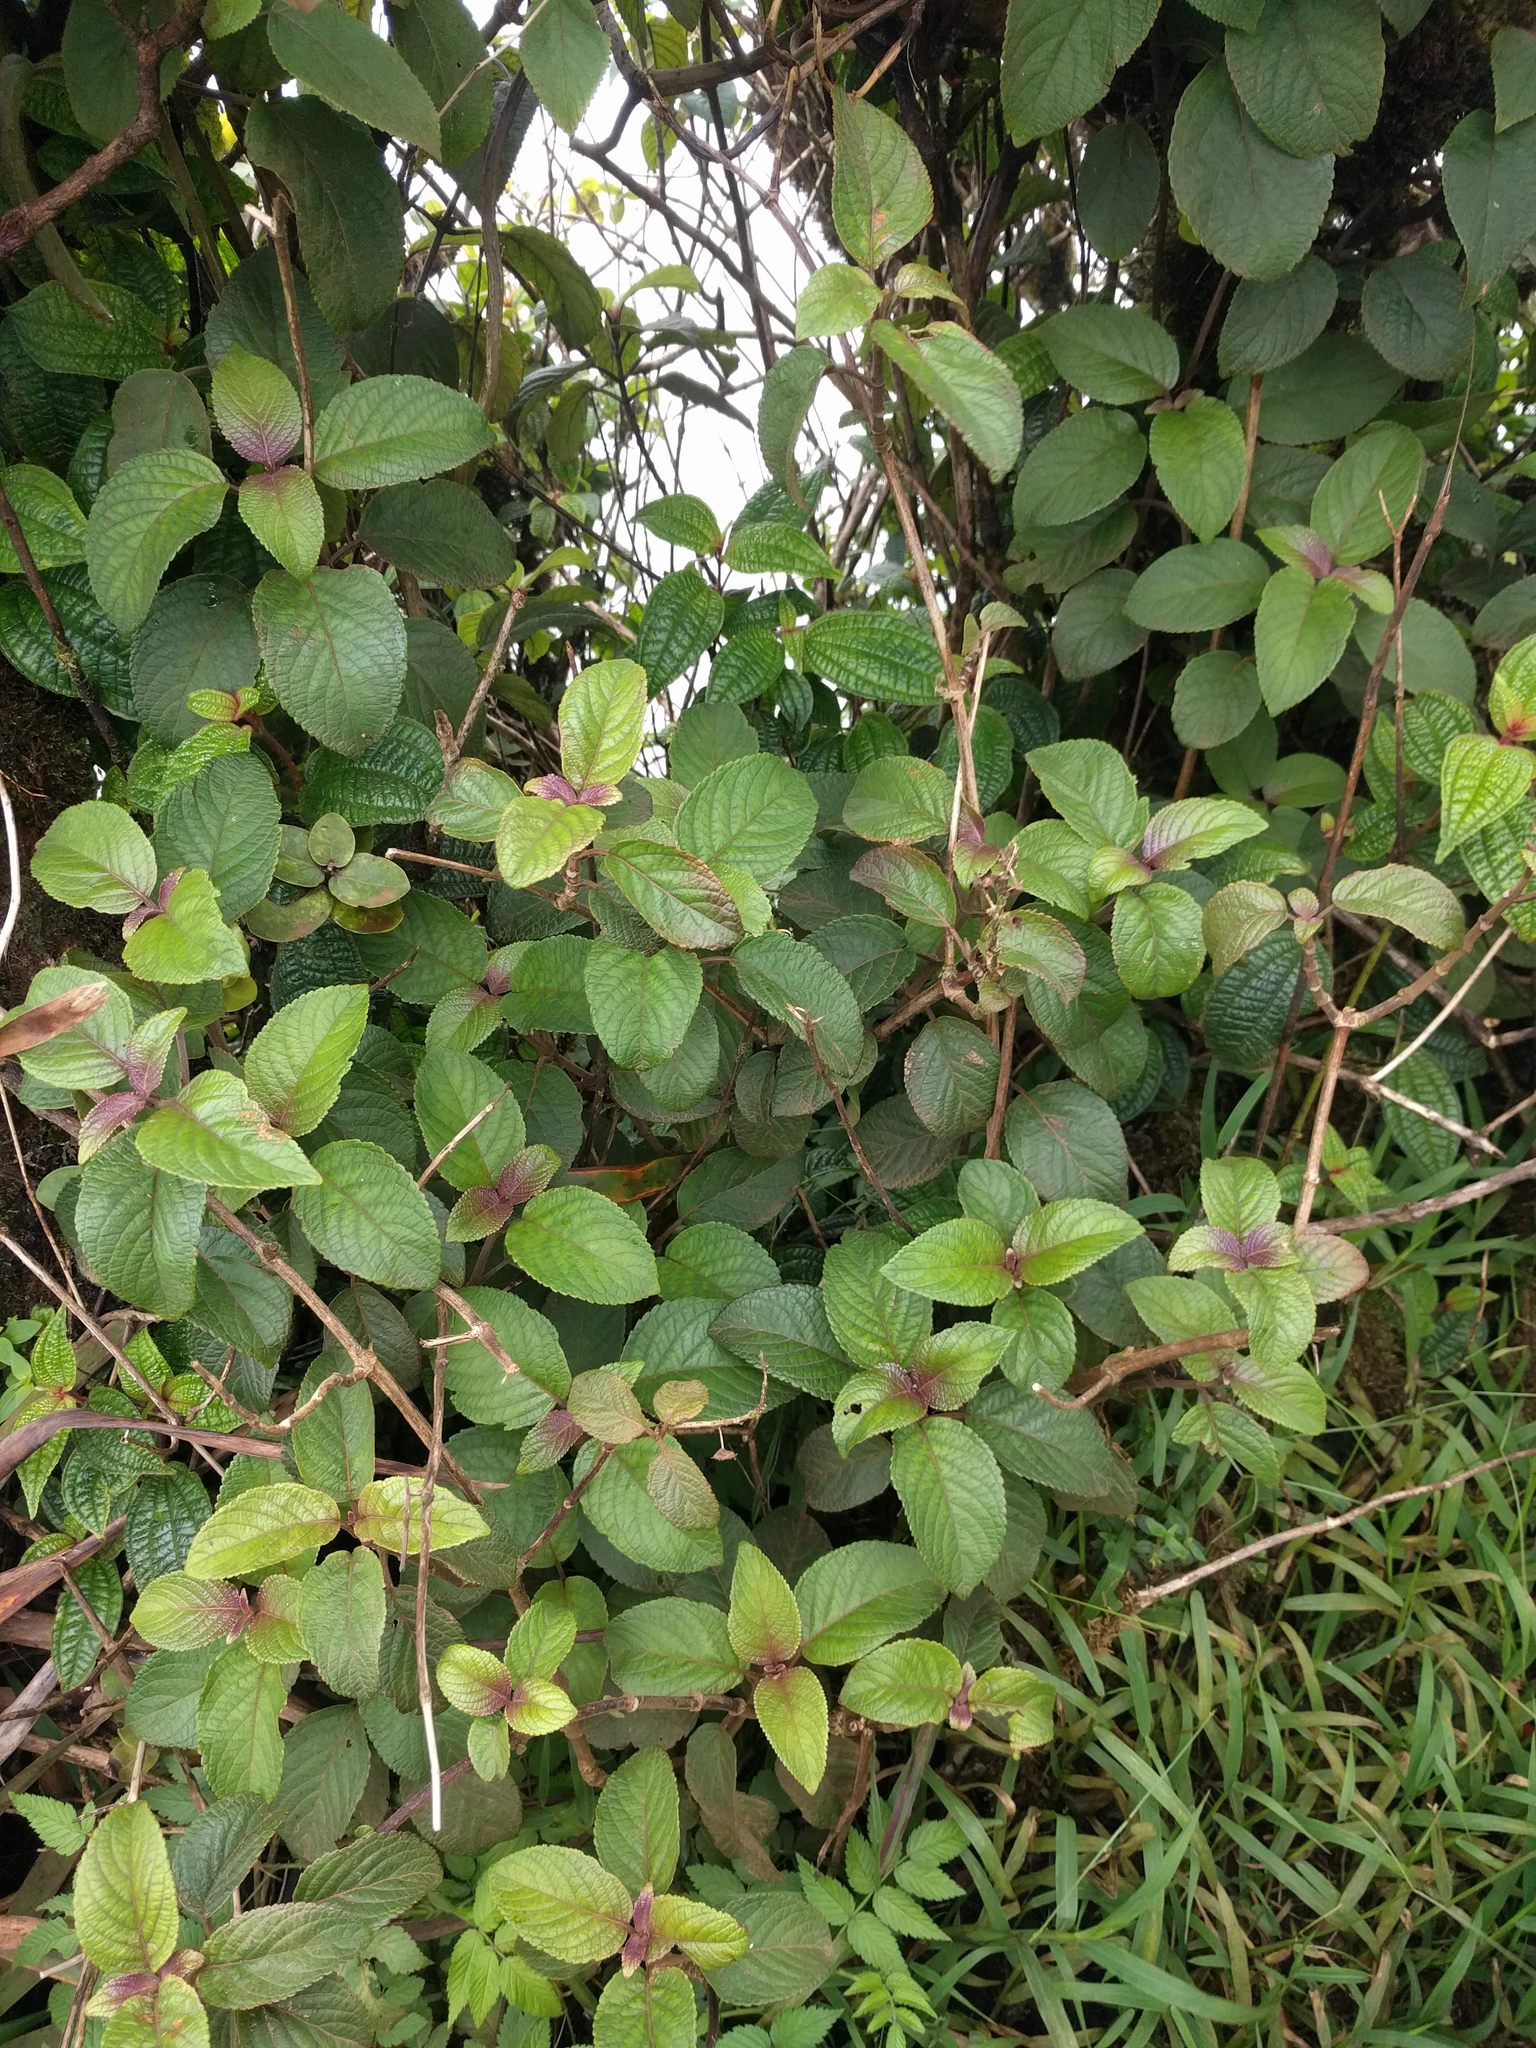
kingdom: Plantae
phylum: Tracheophyta
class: Magnoliopsida
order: Lamiales
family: Lamiaceae
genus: Phyllostegia
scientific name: Phyllostegia grandiflora
